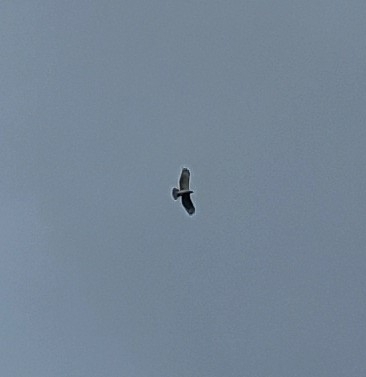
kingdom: Animalia
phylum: Chordata
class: Aves
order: Accipitriformes
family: Accipitridae
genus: Buteo
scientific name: Buteo jamaicensis
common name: Red-tailed hawk
